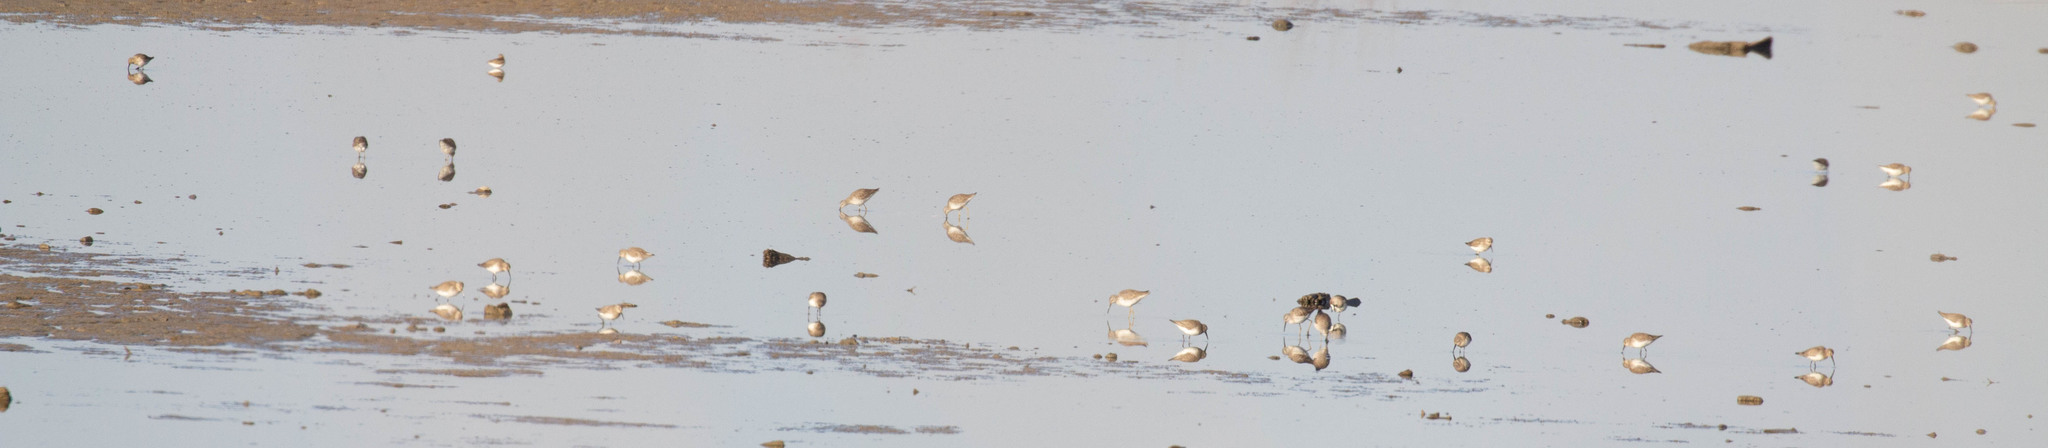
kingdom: Animalia
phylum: Chordata
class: Aves
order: Charadriiformes
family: Scolopacidae
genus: Calidris
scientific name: Calidris alpina
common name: Dunlin
